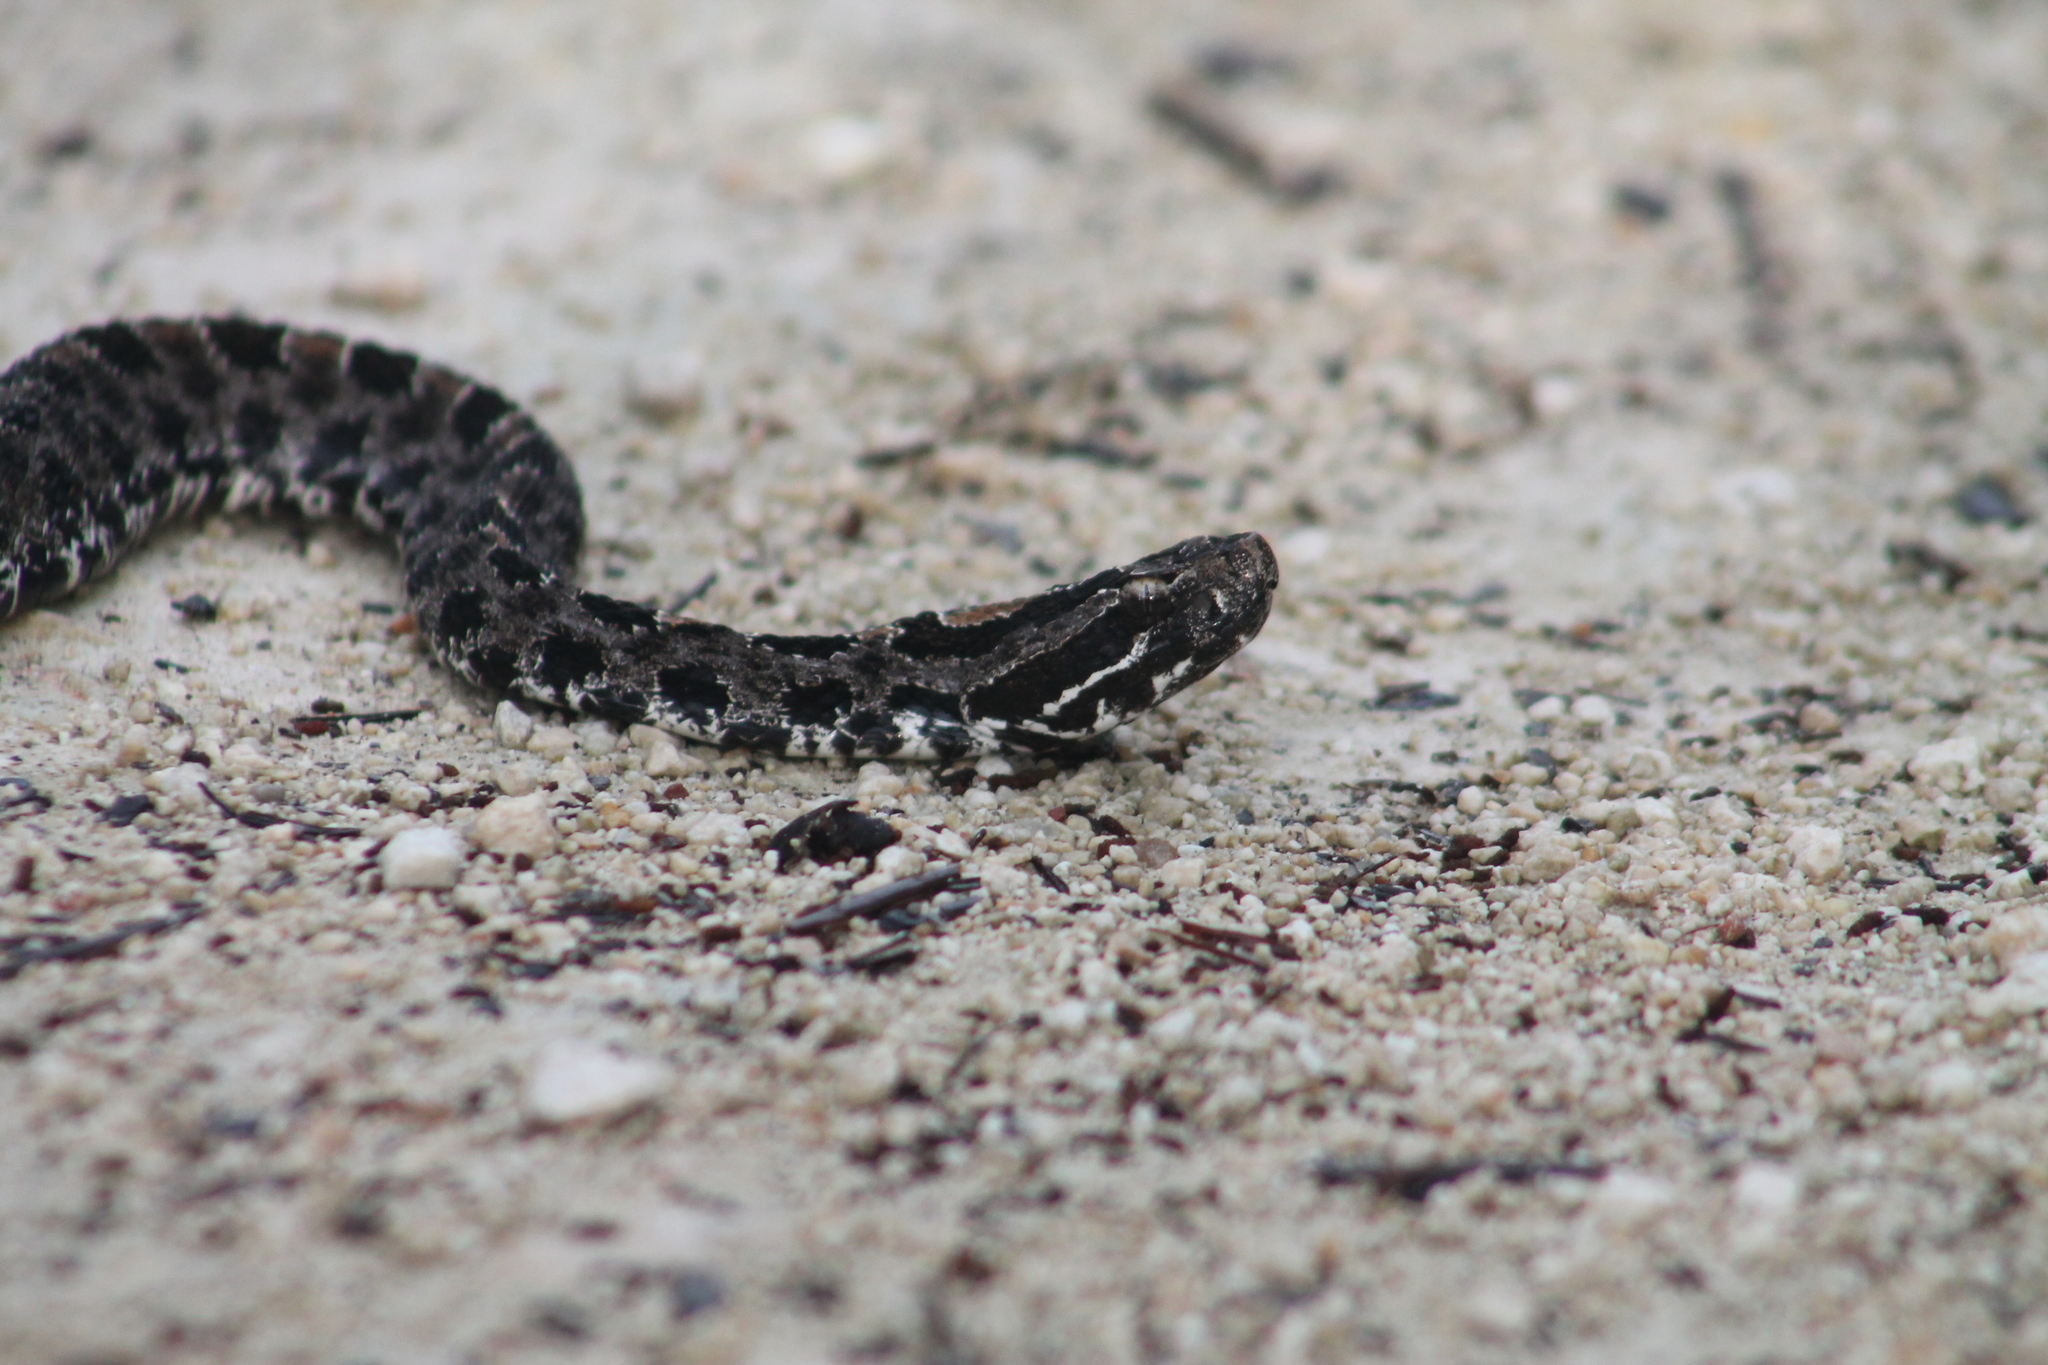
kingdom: Animalia
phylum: Chordata
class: Squamata
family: Viperidae
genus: Sistrurus
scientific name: Sistrurus miliarius
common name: Pygmy rattlesnake
